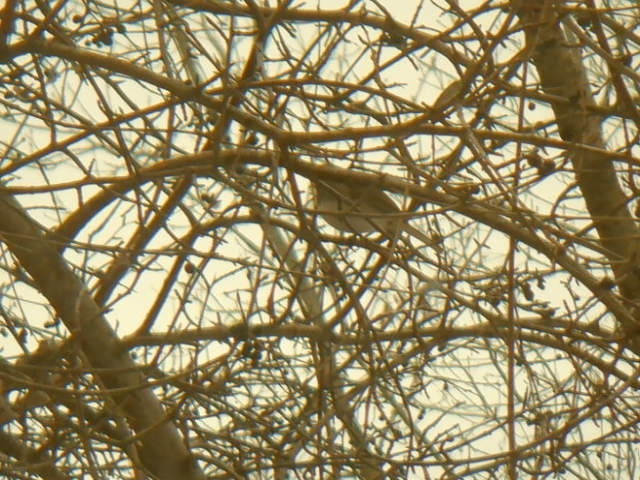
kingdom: Animalia
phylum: Chordata
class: Aves
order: Passeriformes
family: Passerellidae
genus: Junco
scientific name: Junco hyemalis
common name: Dark-eyed junco
